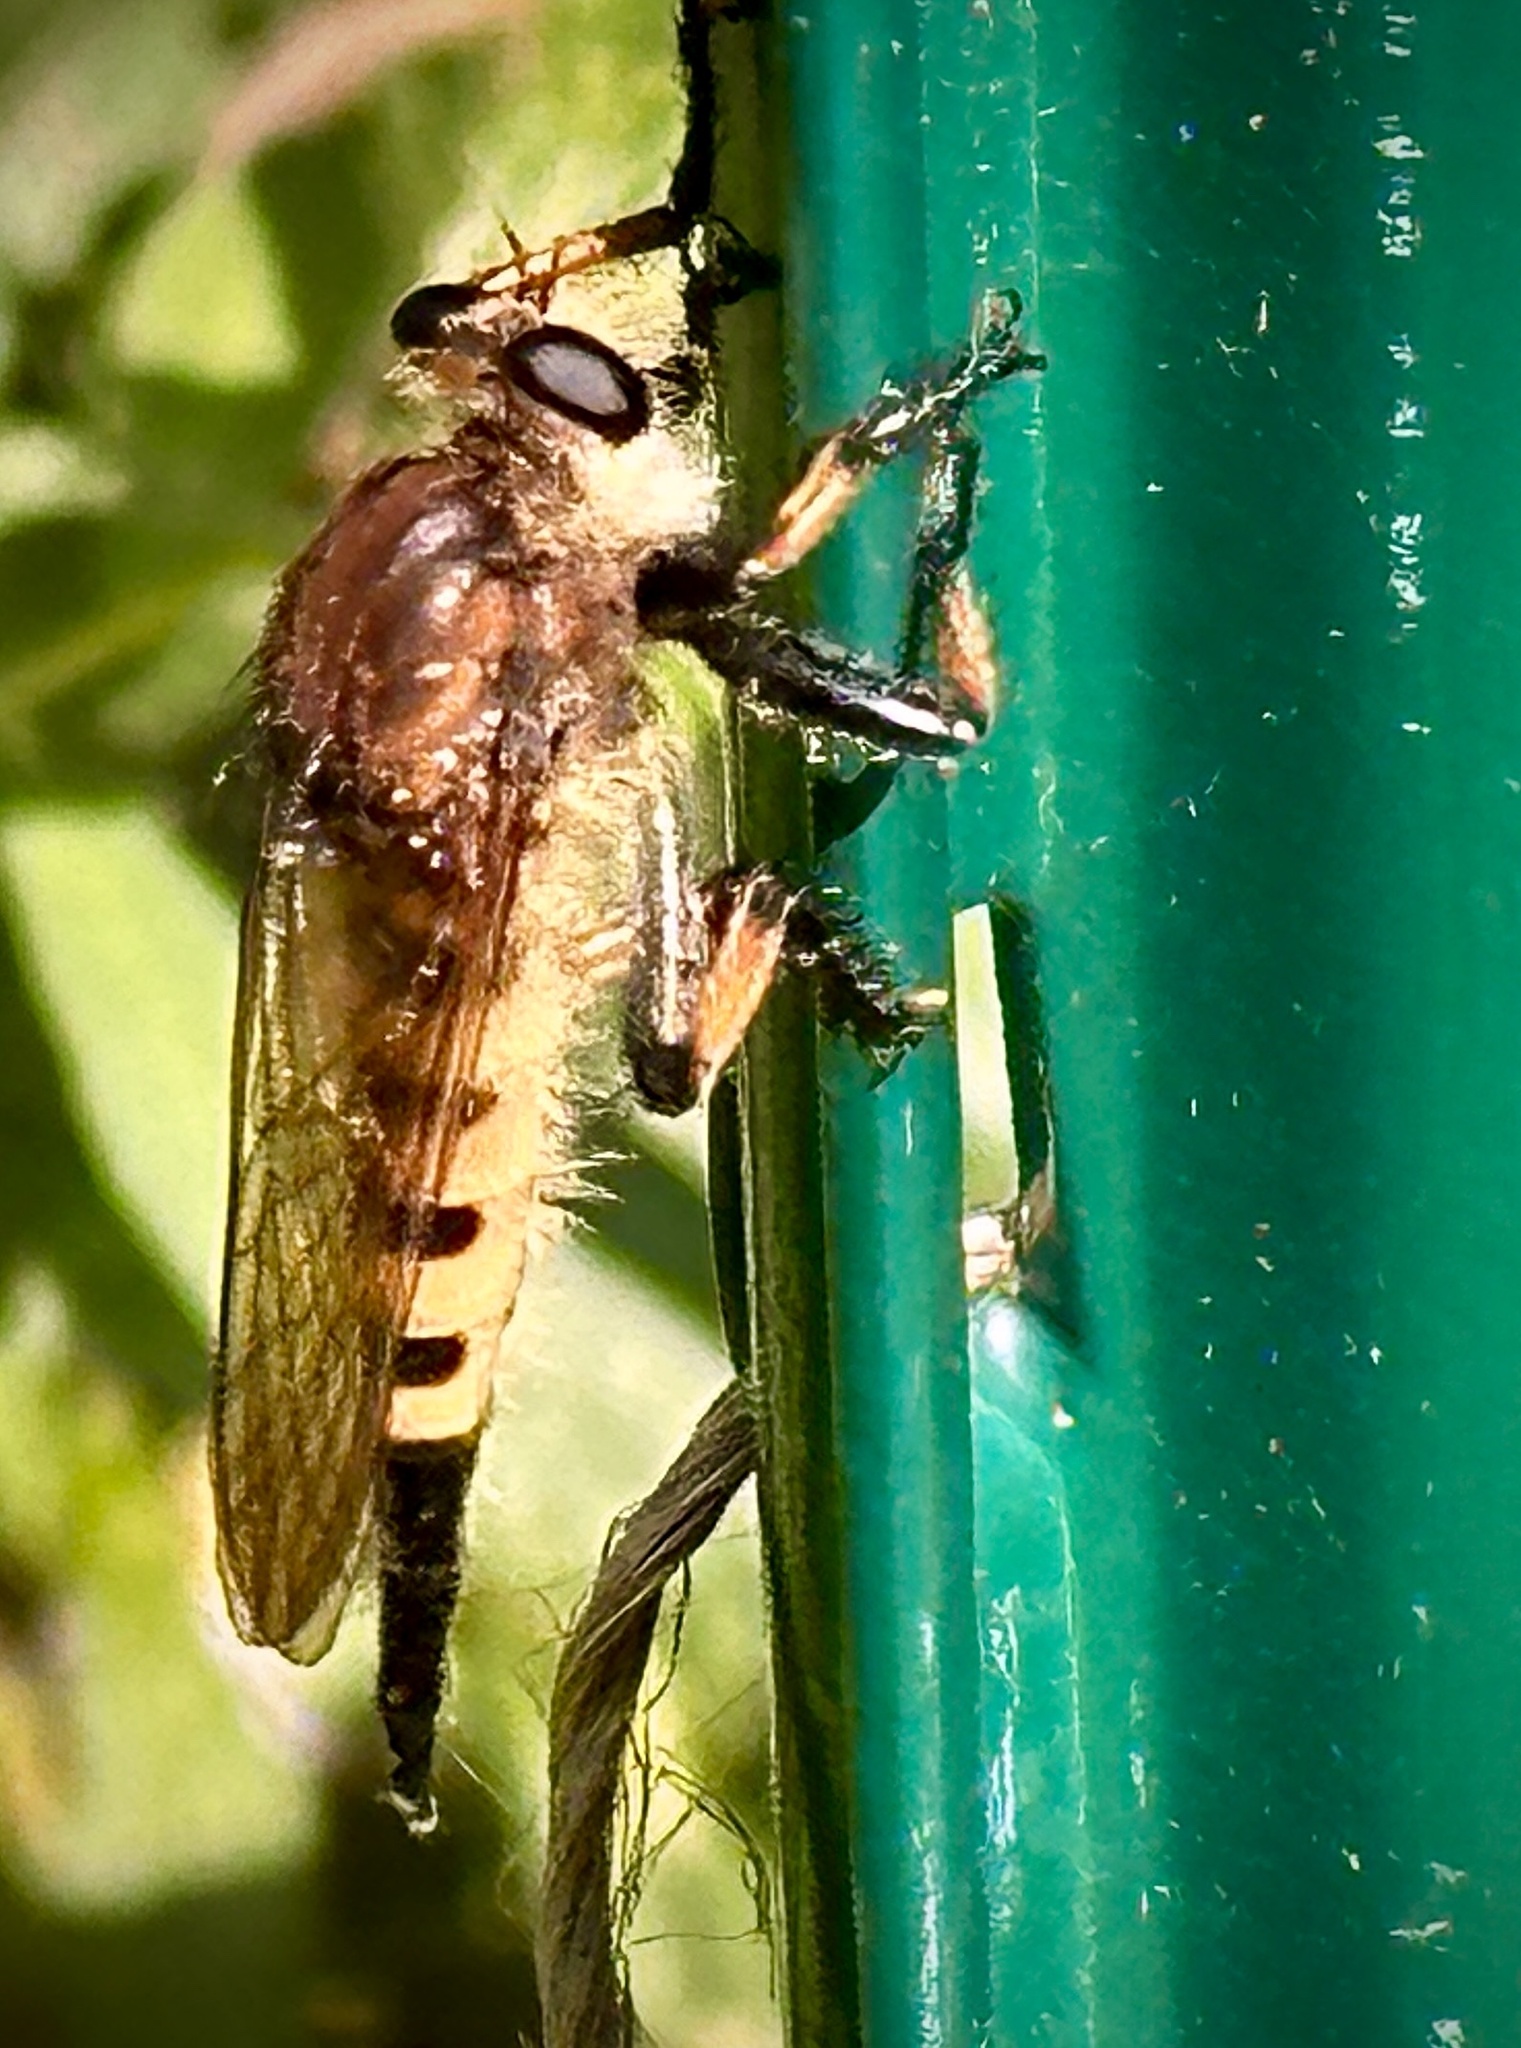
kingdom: Animalia
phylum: Arthropoda
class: Insecta
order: Diptera
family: Asilidae
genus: Promachus
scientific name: Promachus rufipes
